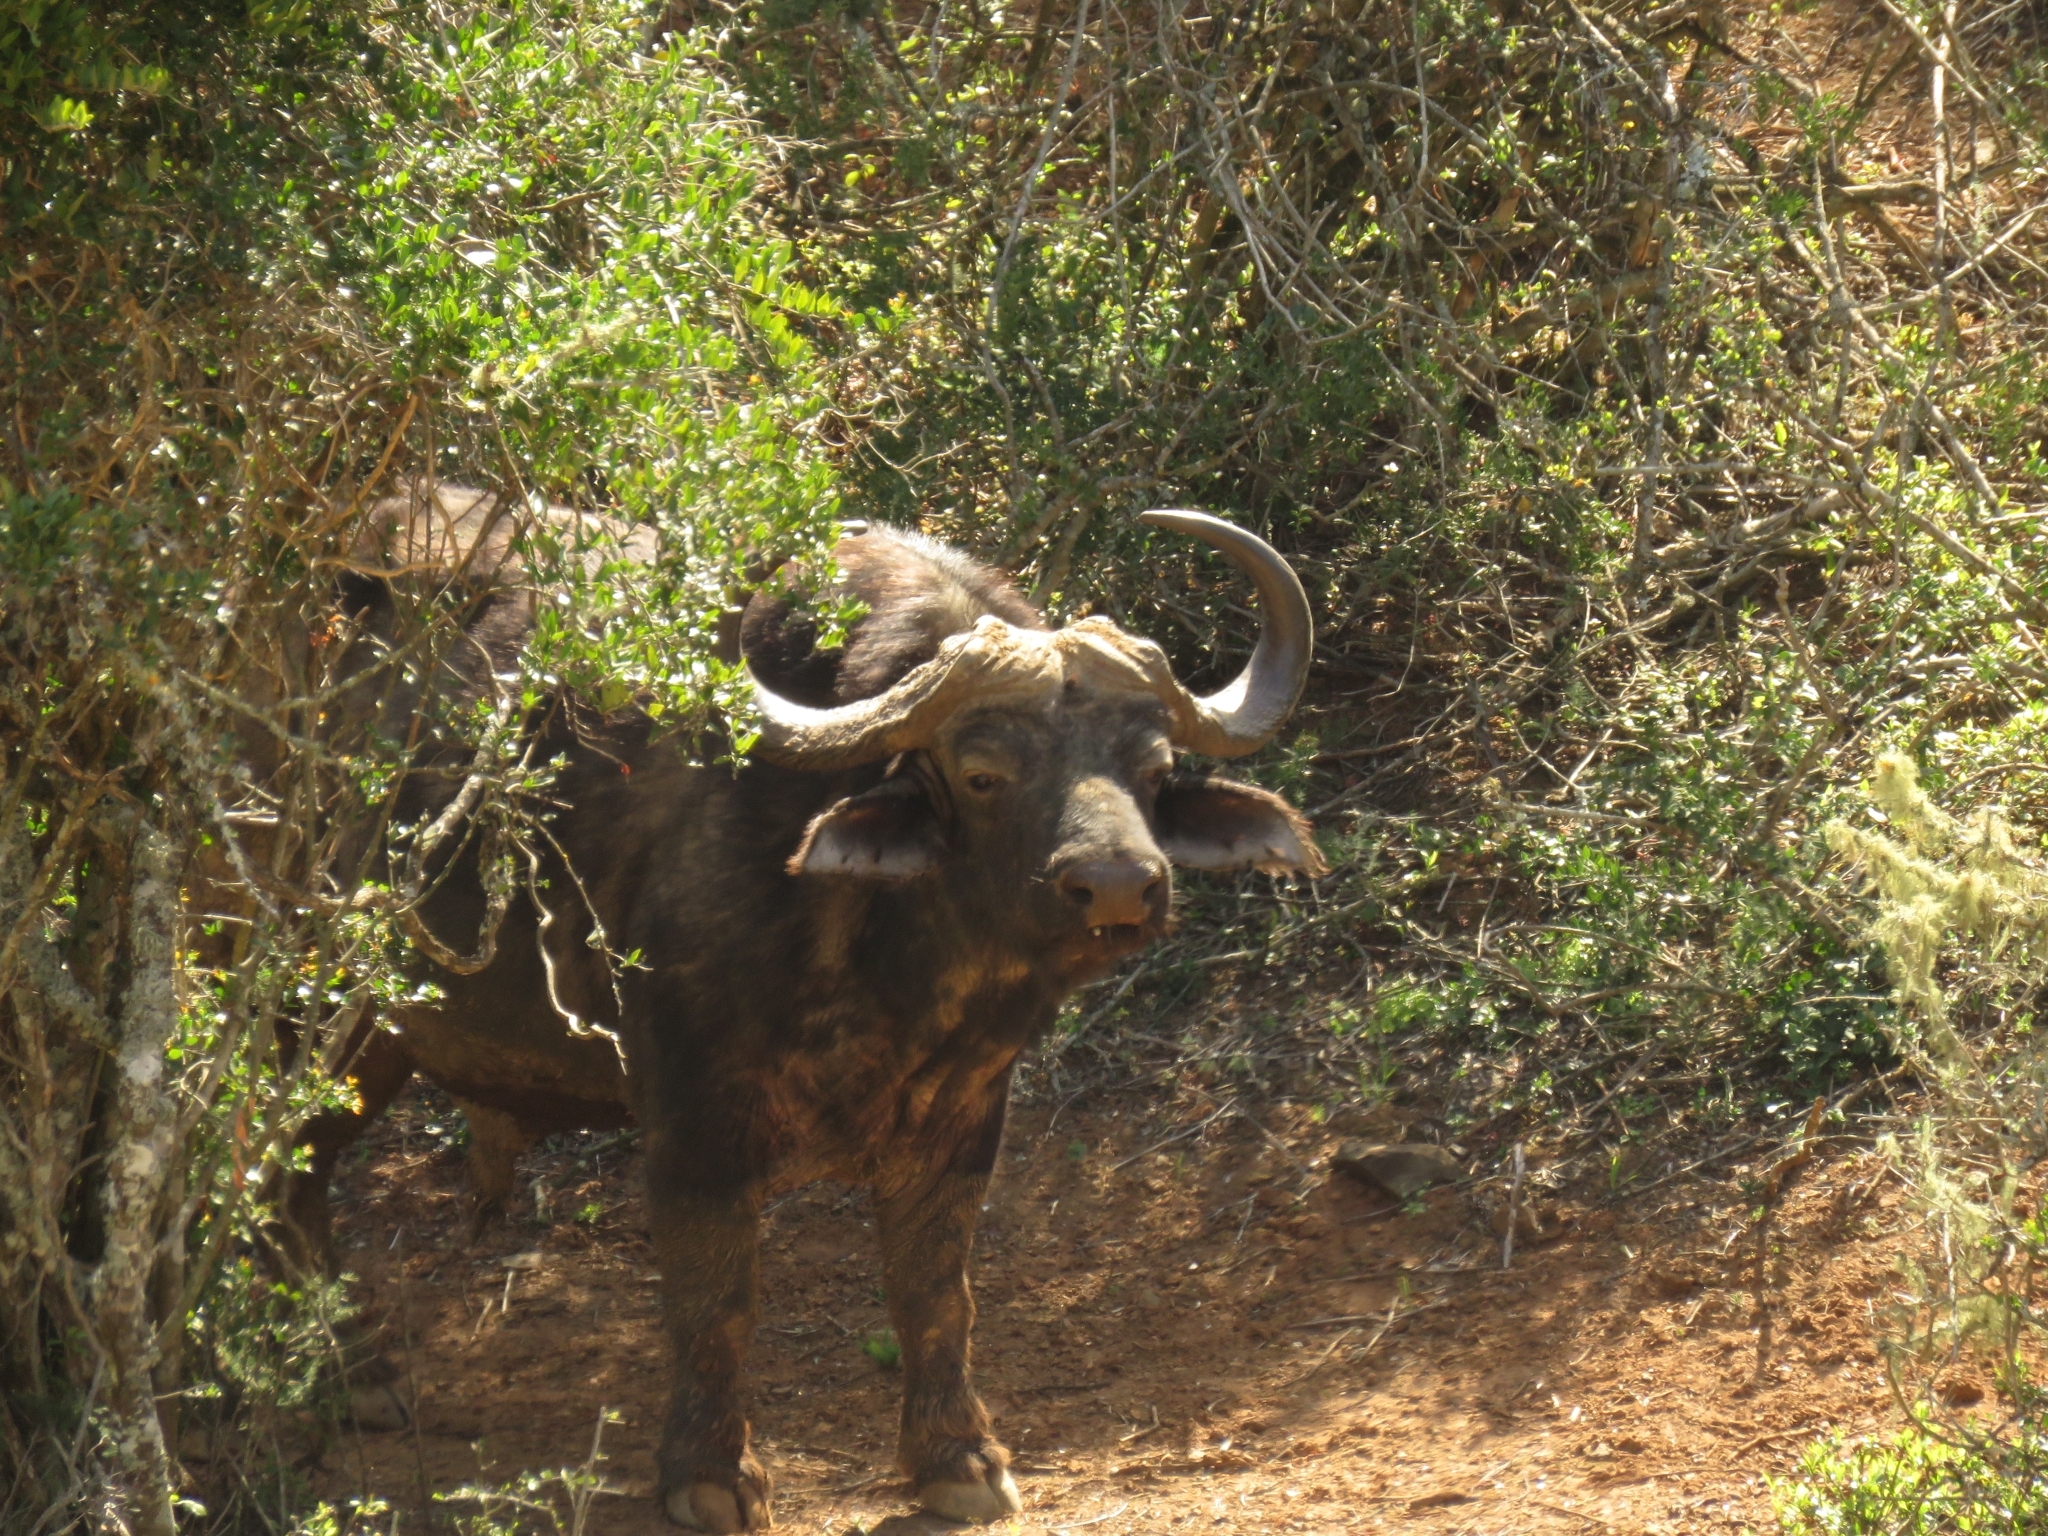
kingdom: Animalia
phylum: Chordata
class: Mammalia
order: Artiodactyla
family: Bovidae
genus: Syncerus
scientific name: Syncerus caffer
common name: African buffalo
